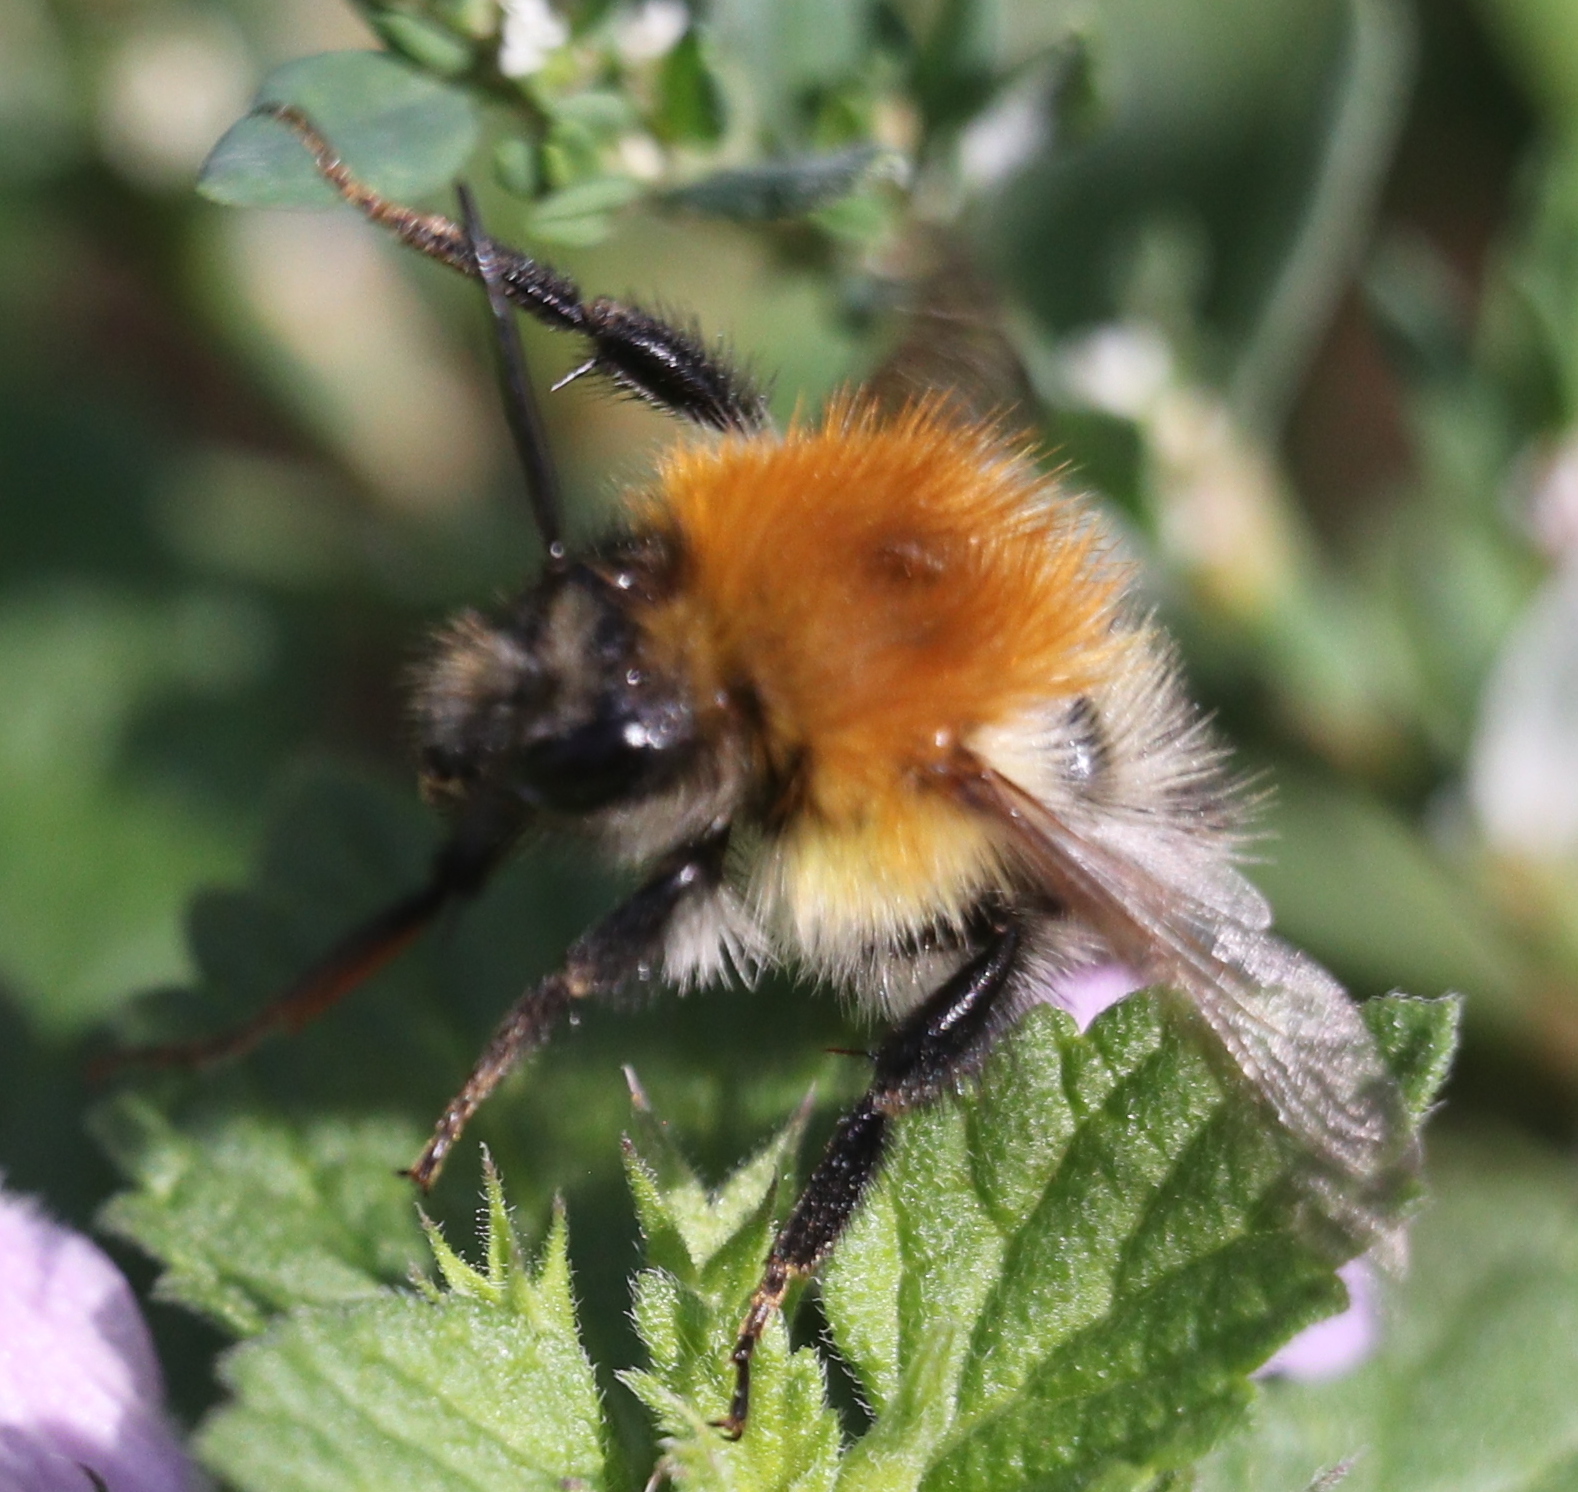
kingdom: Animalia
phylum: Arthropoda
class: Insecta
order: Hymenoptera
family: Apidae
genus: Bombus
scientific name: Bombus pascuorum
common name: Common carder bee
